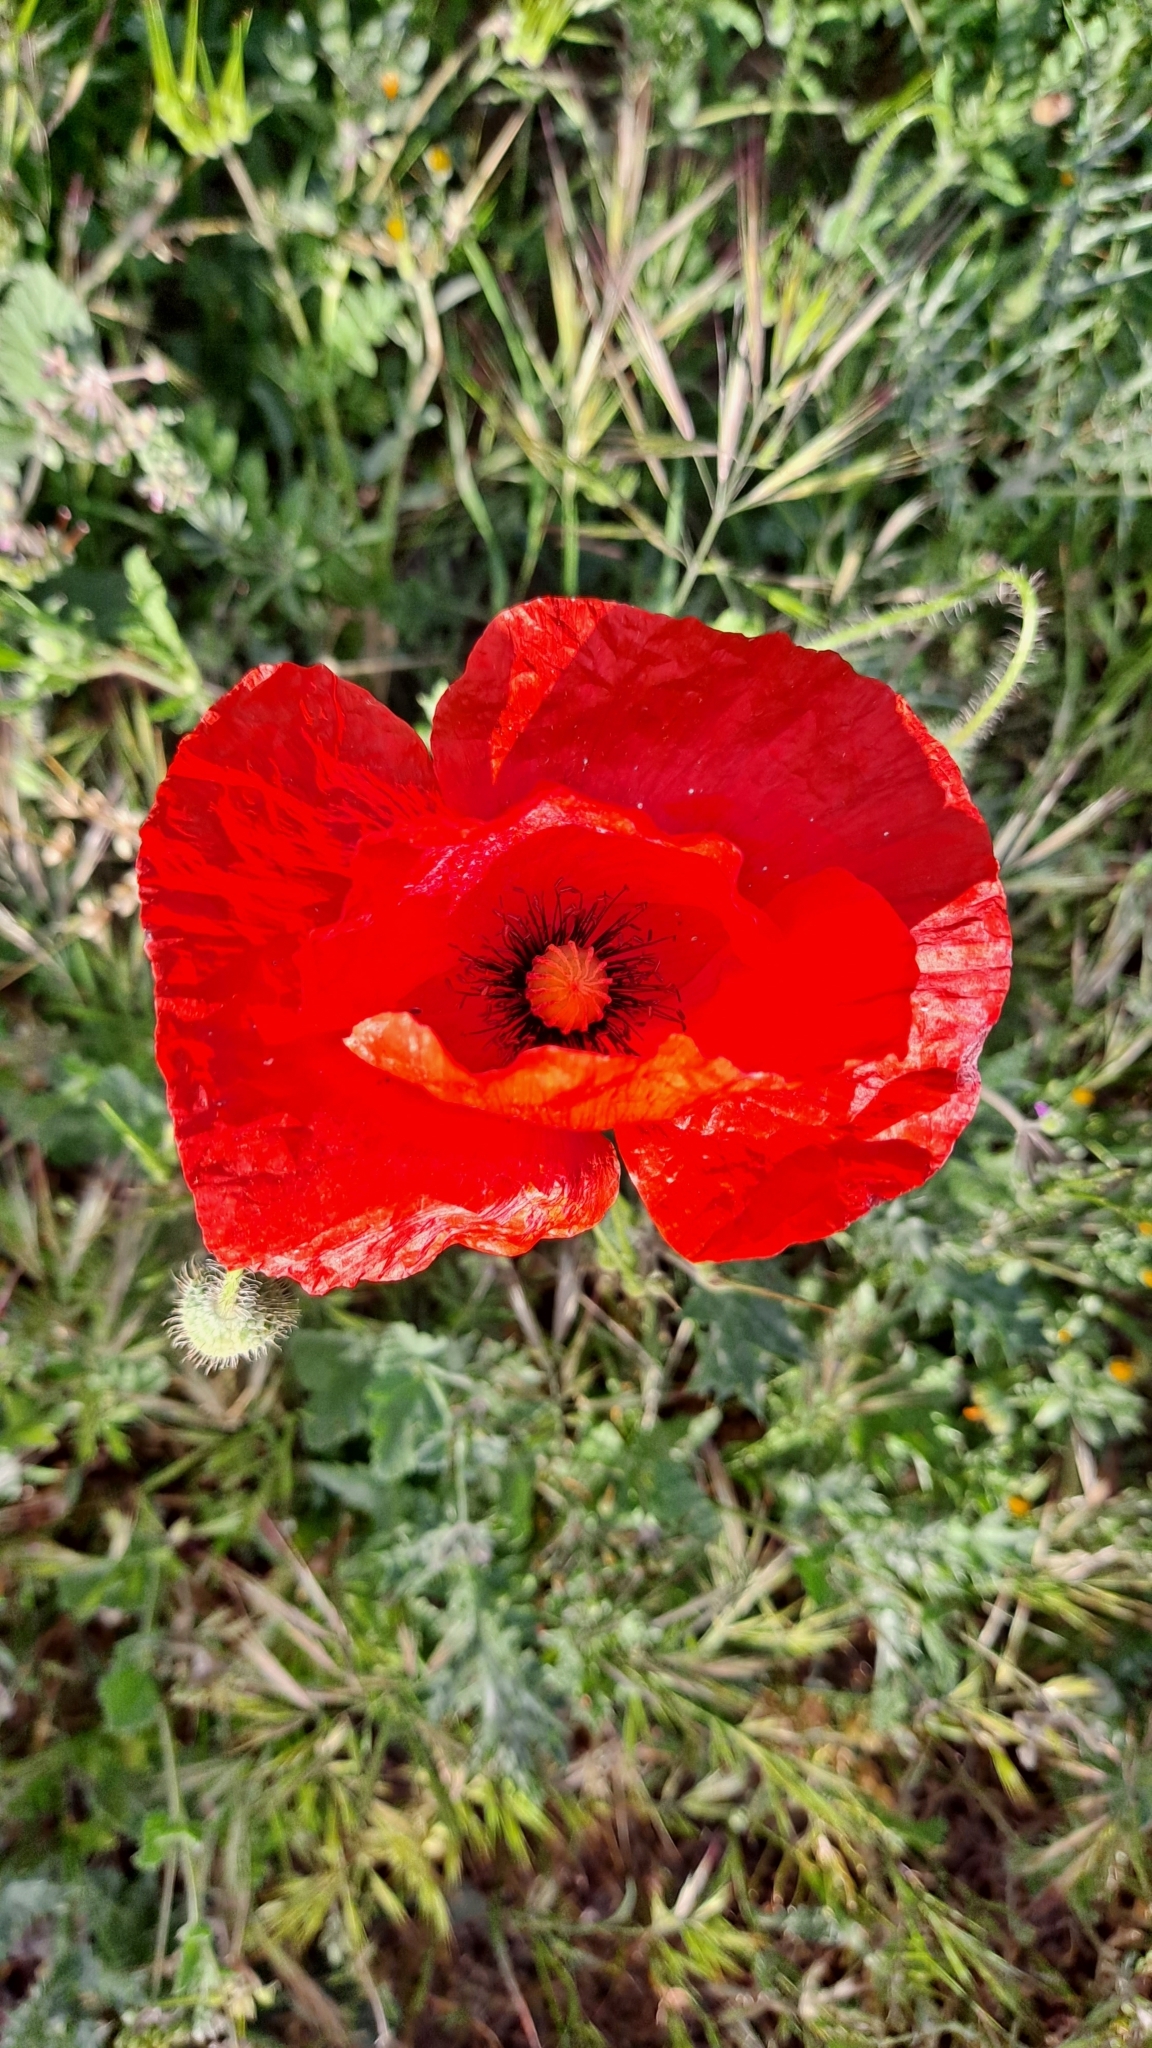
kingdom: Plantae
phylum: Tracheophyta
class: Magnoliopsida
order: Ranunculales
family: Papaveraceae
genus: Papaver
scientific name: Papaver rhoeas
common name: Corn poppy
